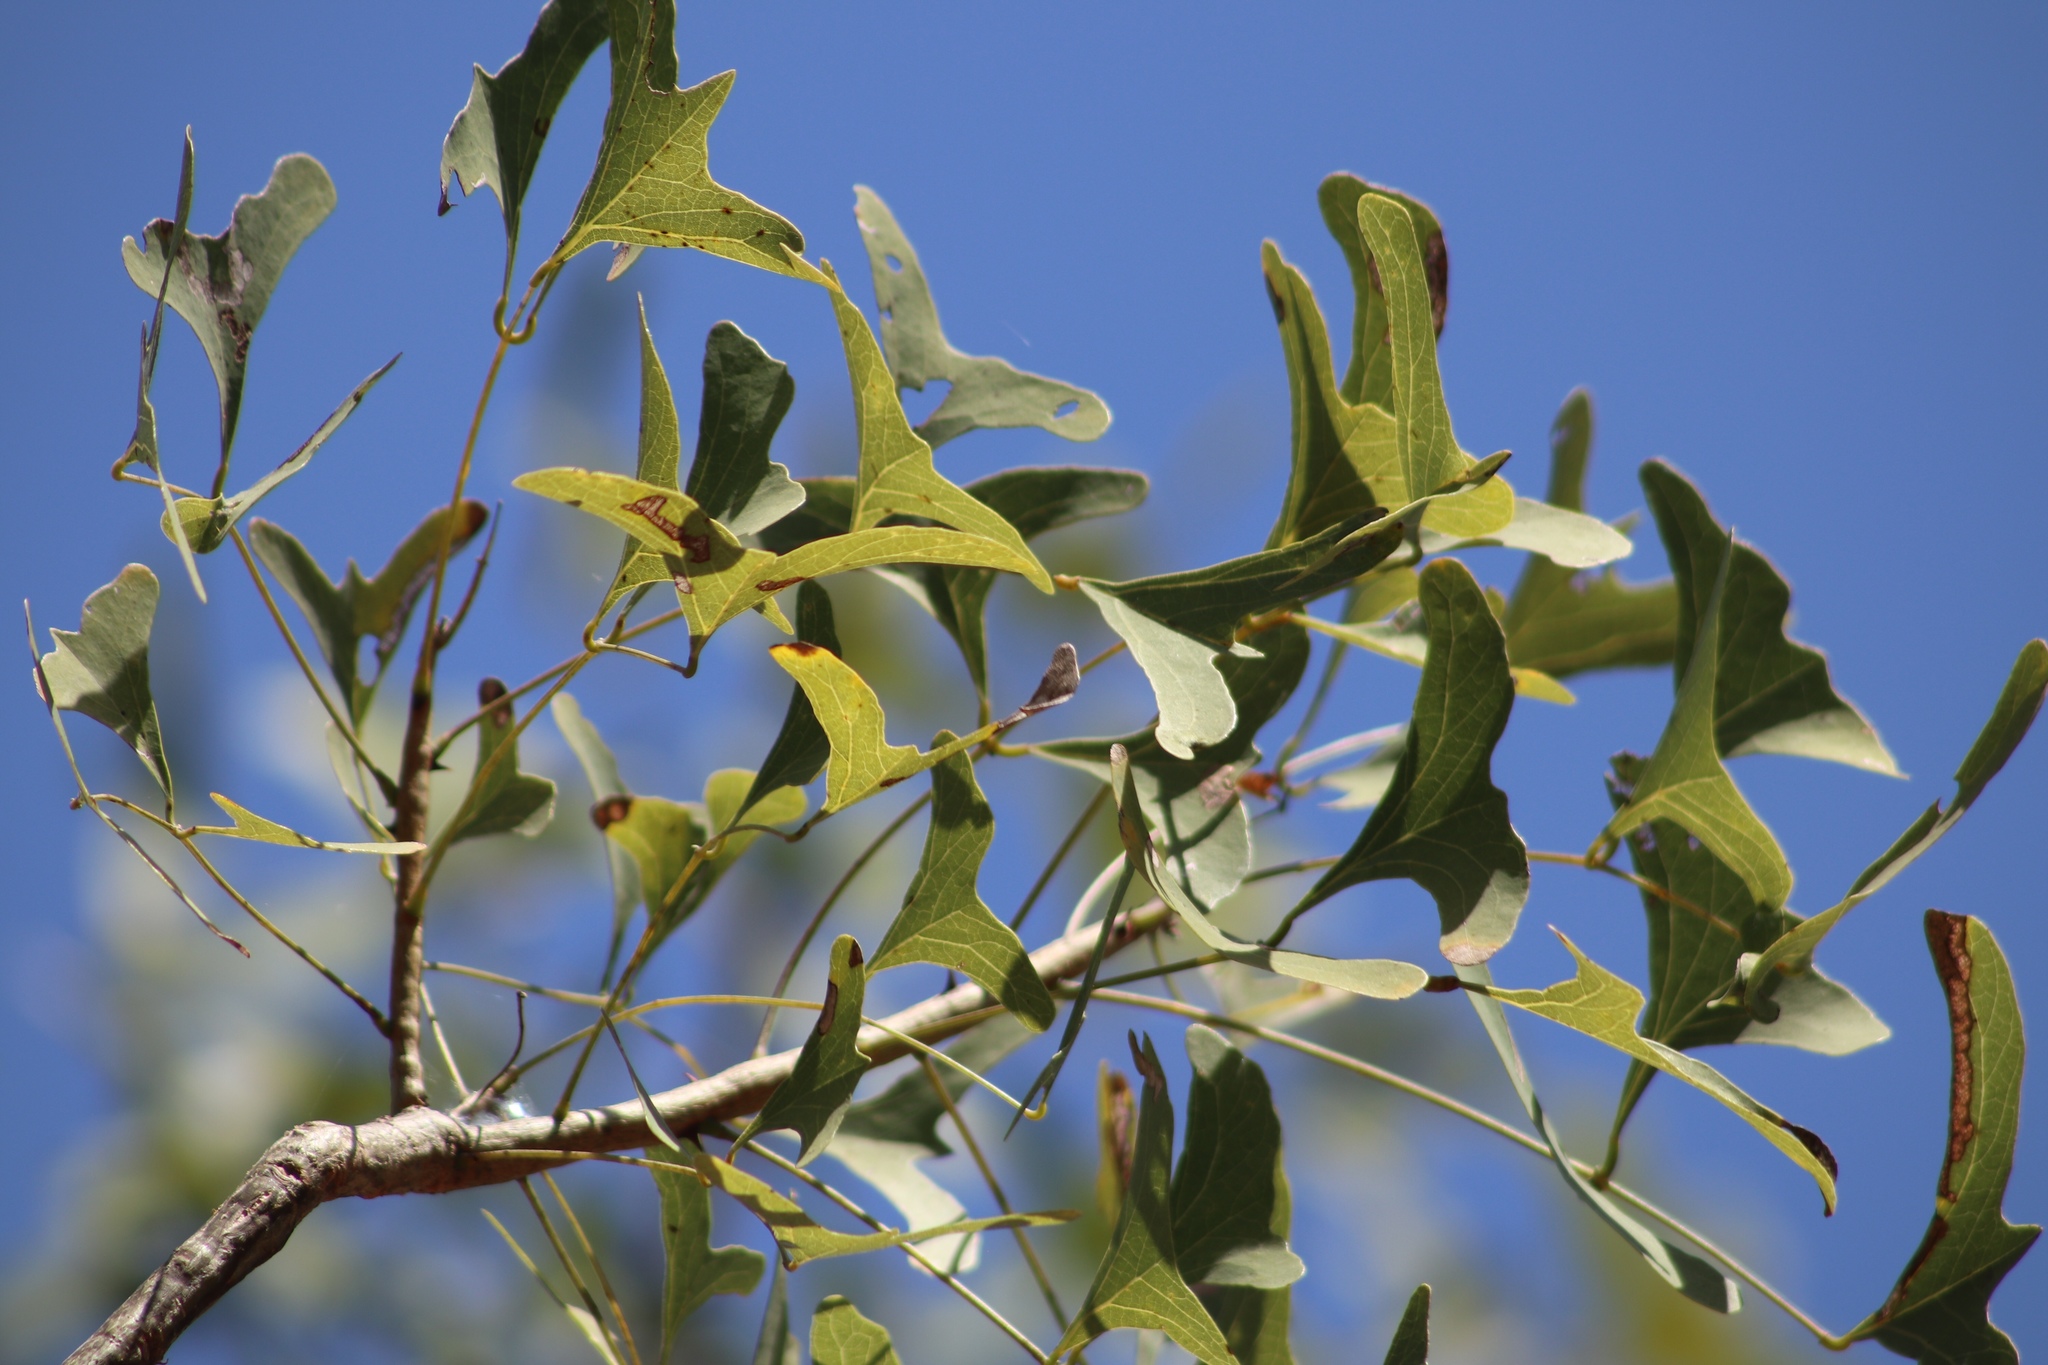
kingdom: Plantae
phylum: Tracheophyta
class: Magnoliopsida
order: Fabales
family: Fabaceae
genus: Erythrina
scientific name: Erythrina vespertilio
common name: Bat-wing coral tree
